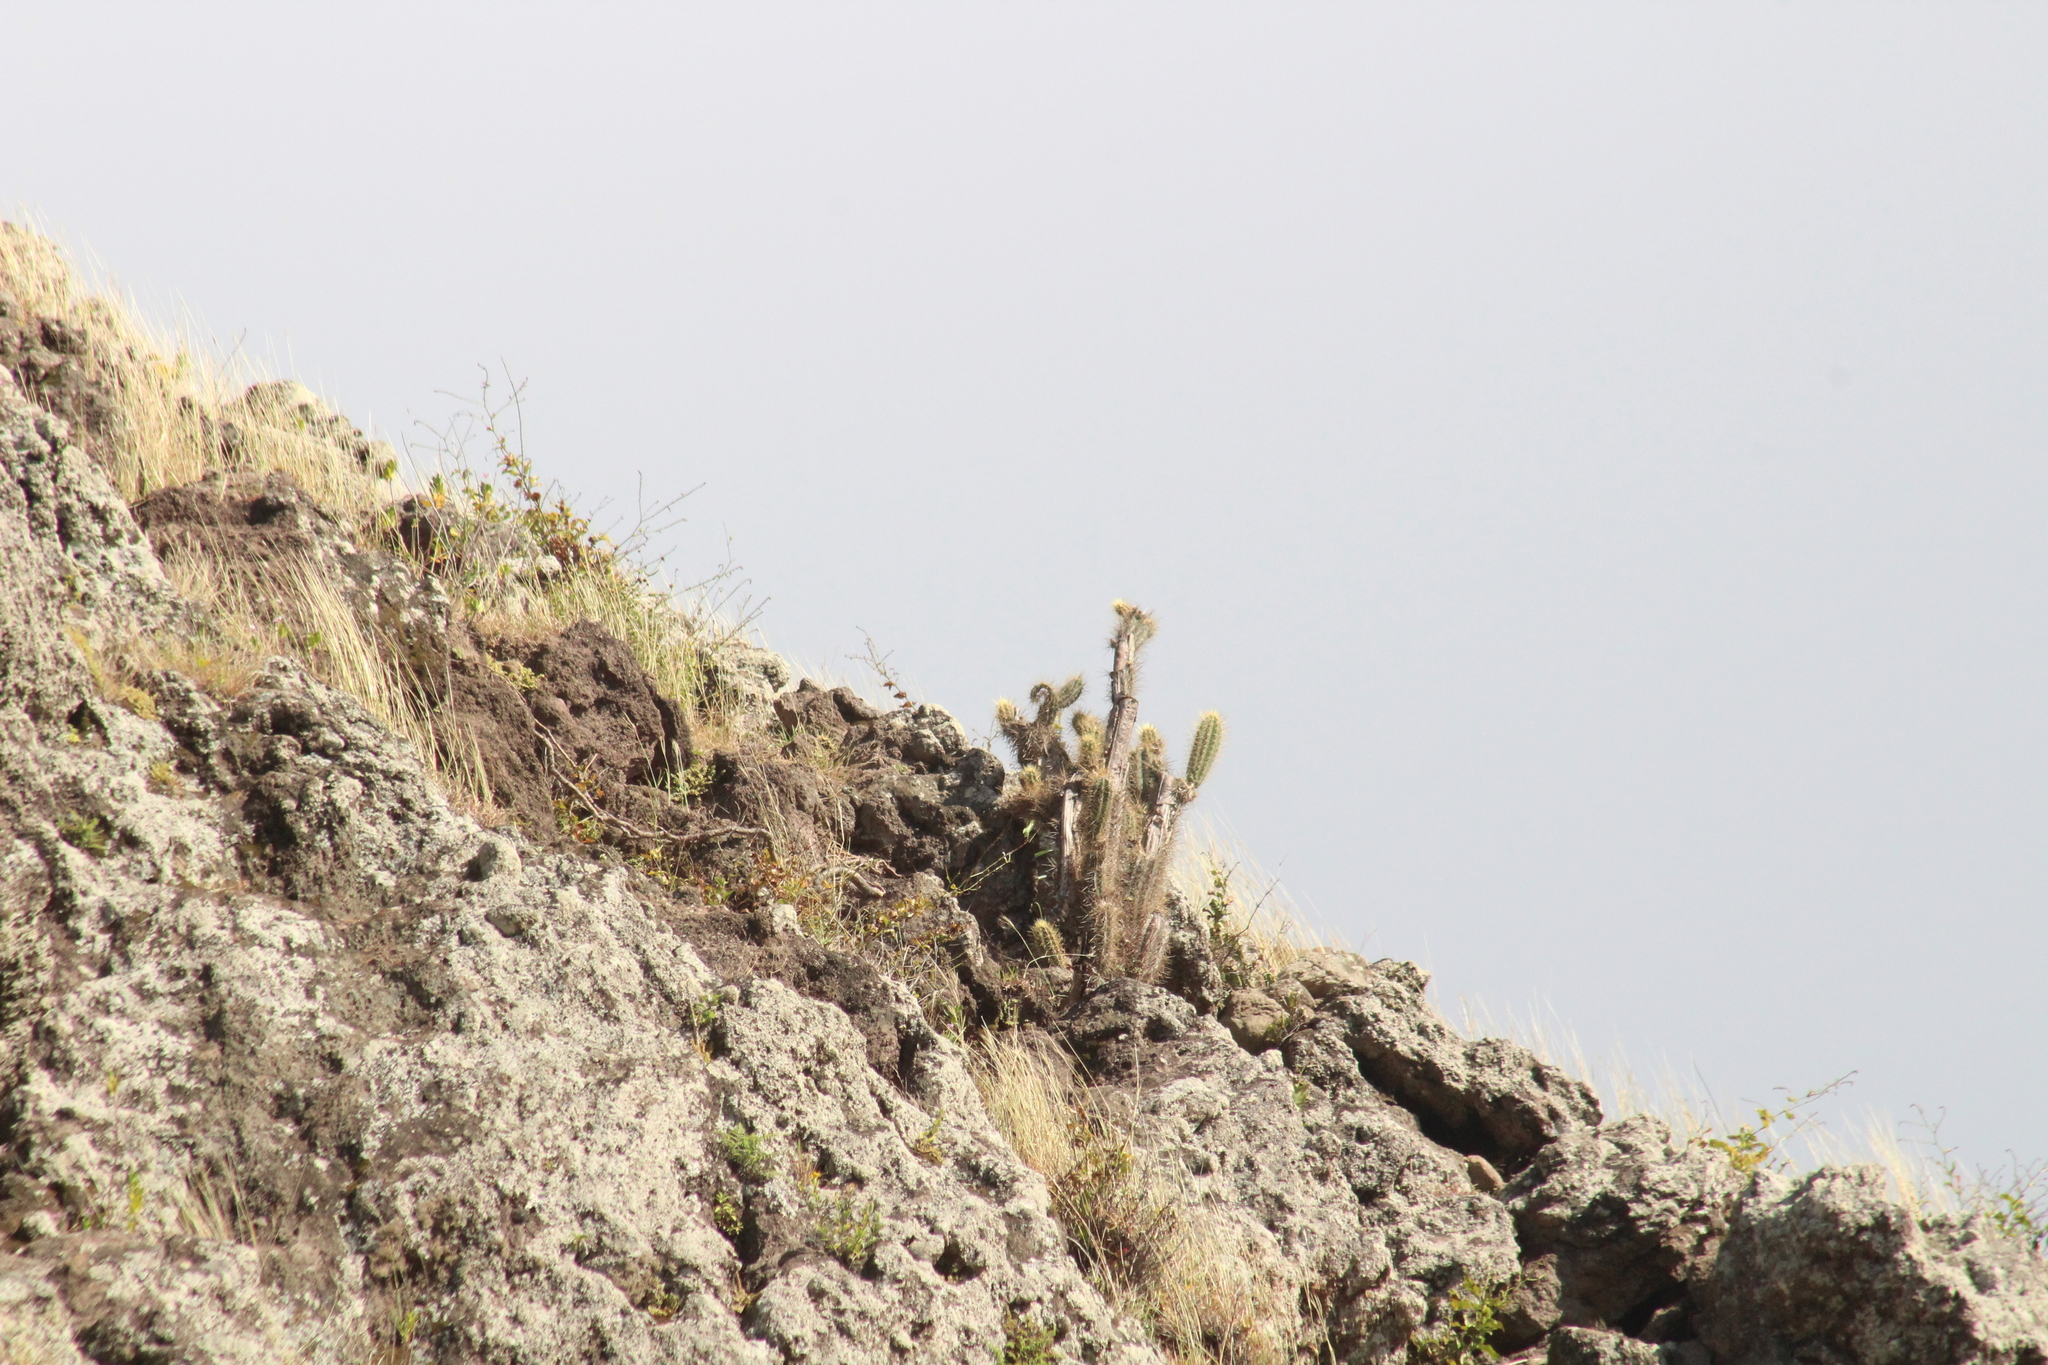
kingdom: Plantae
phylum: Tracheophyta
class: Magnoliopsida
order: Caryophyllales
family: Cactaceae
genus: Pilosocereus
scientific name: Pilosocereus curtisii
